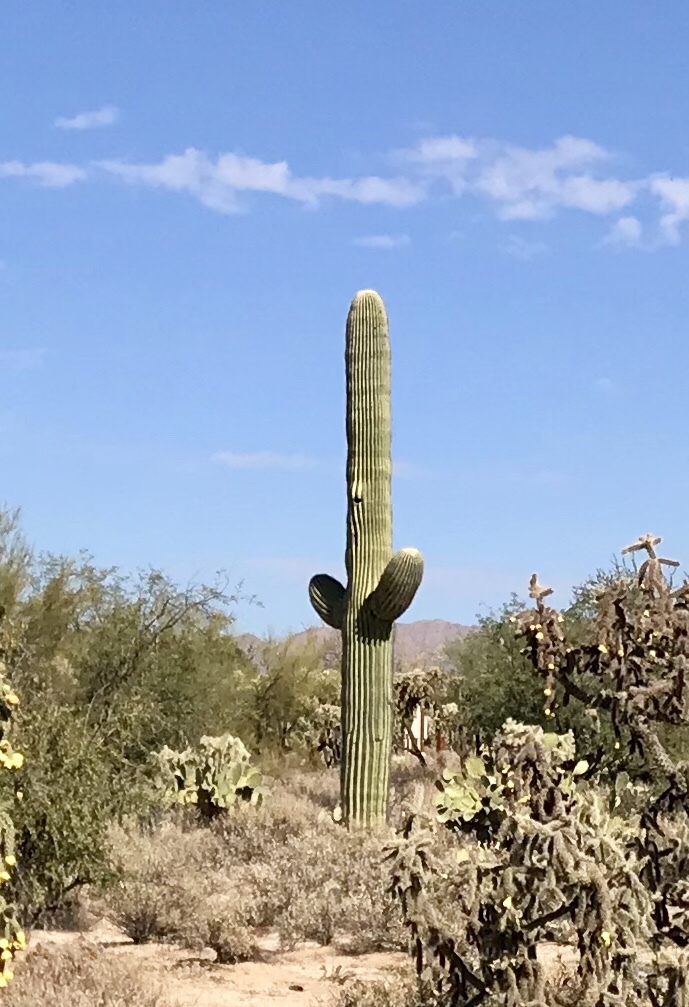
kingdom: Plantae
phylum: Tracheophyta
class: Magnoliopsida
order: Caryophyllales
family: Cactaceae
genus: Carnegiea
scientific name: Carnegiea gigantea
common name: Saguaro
